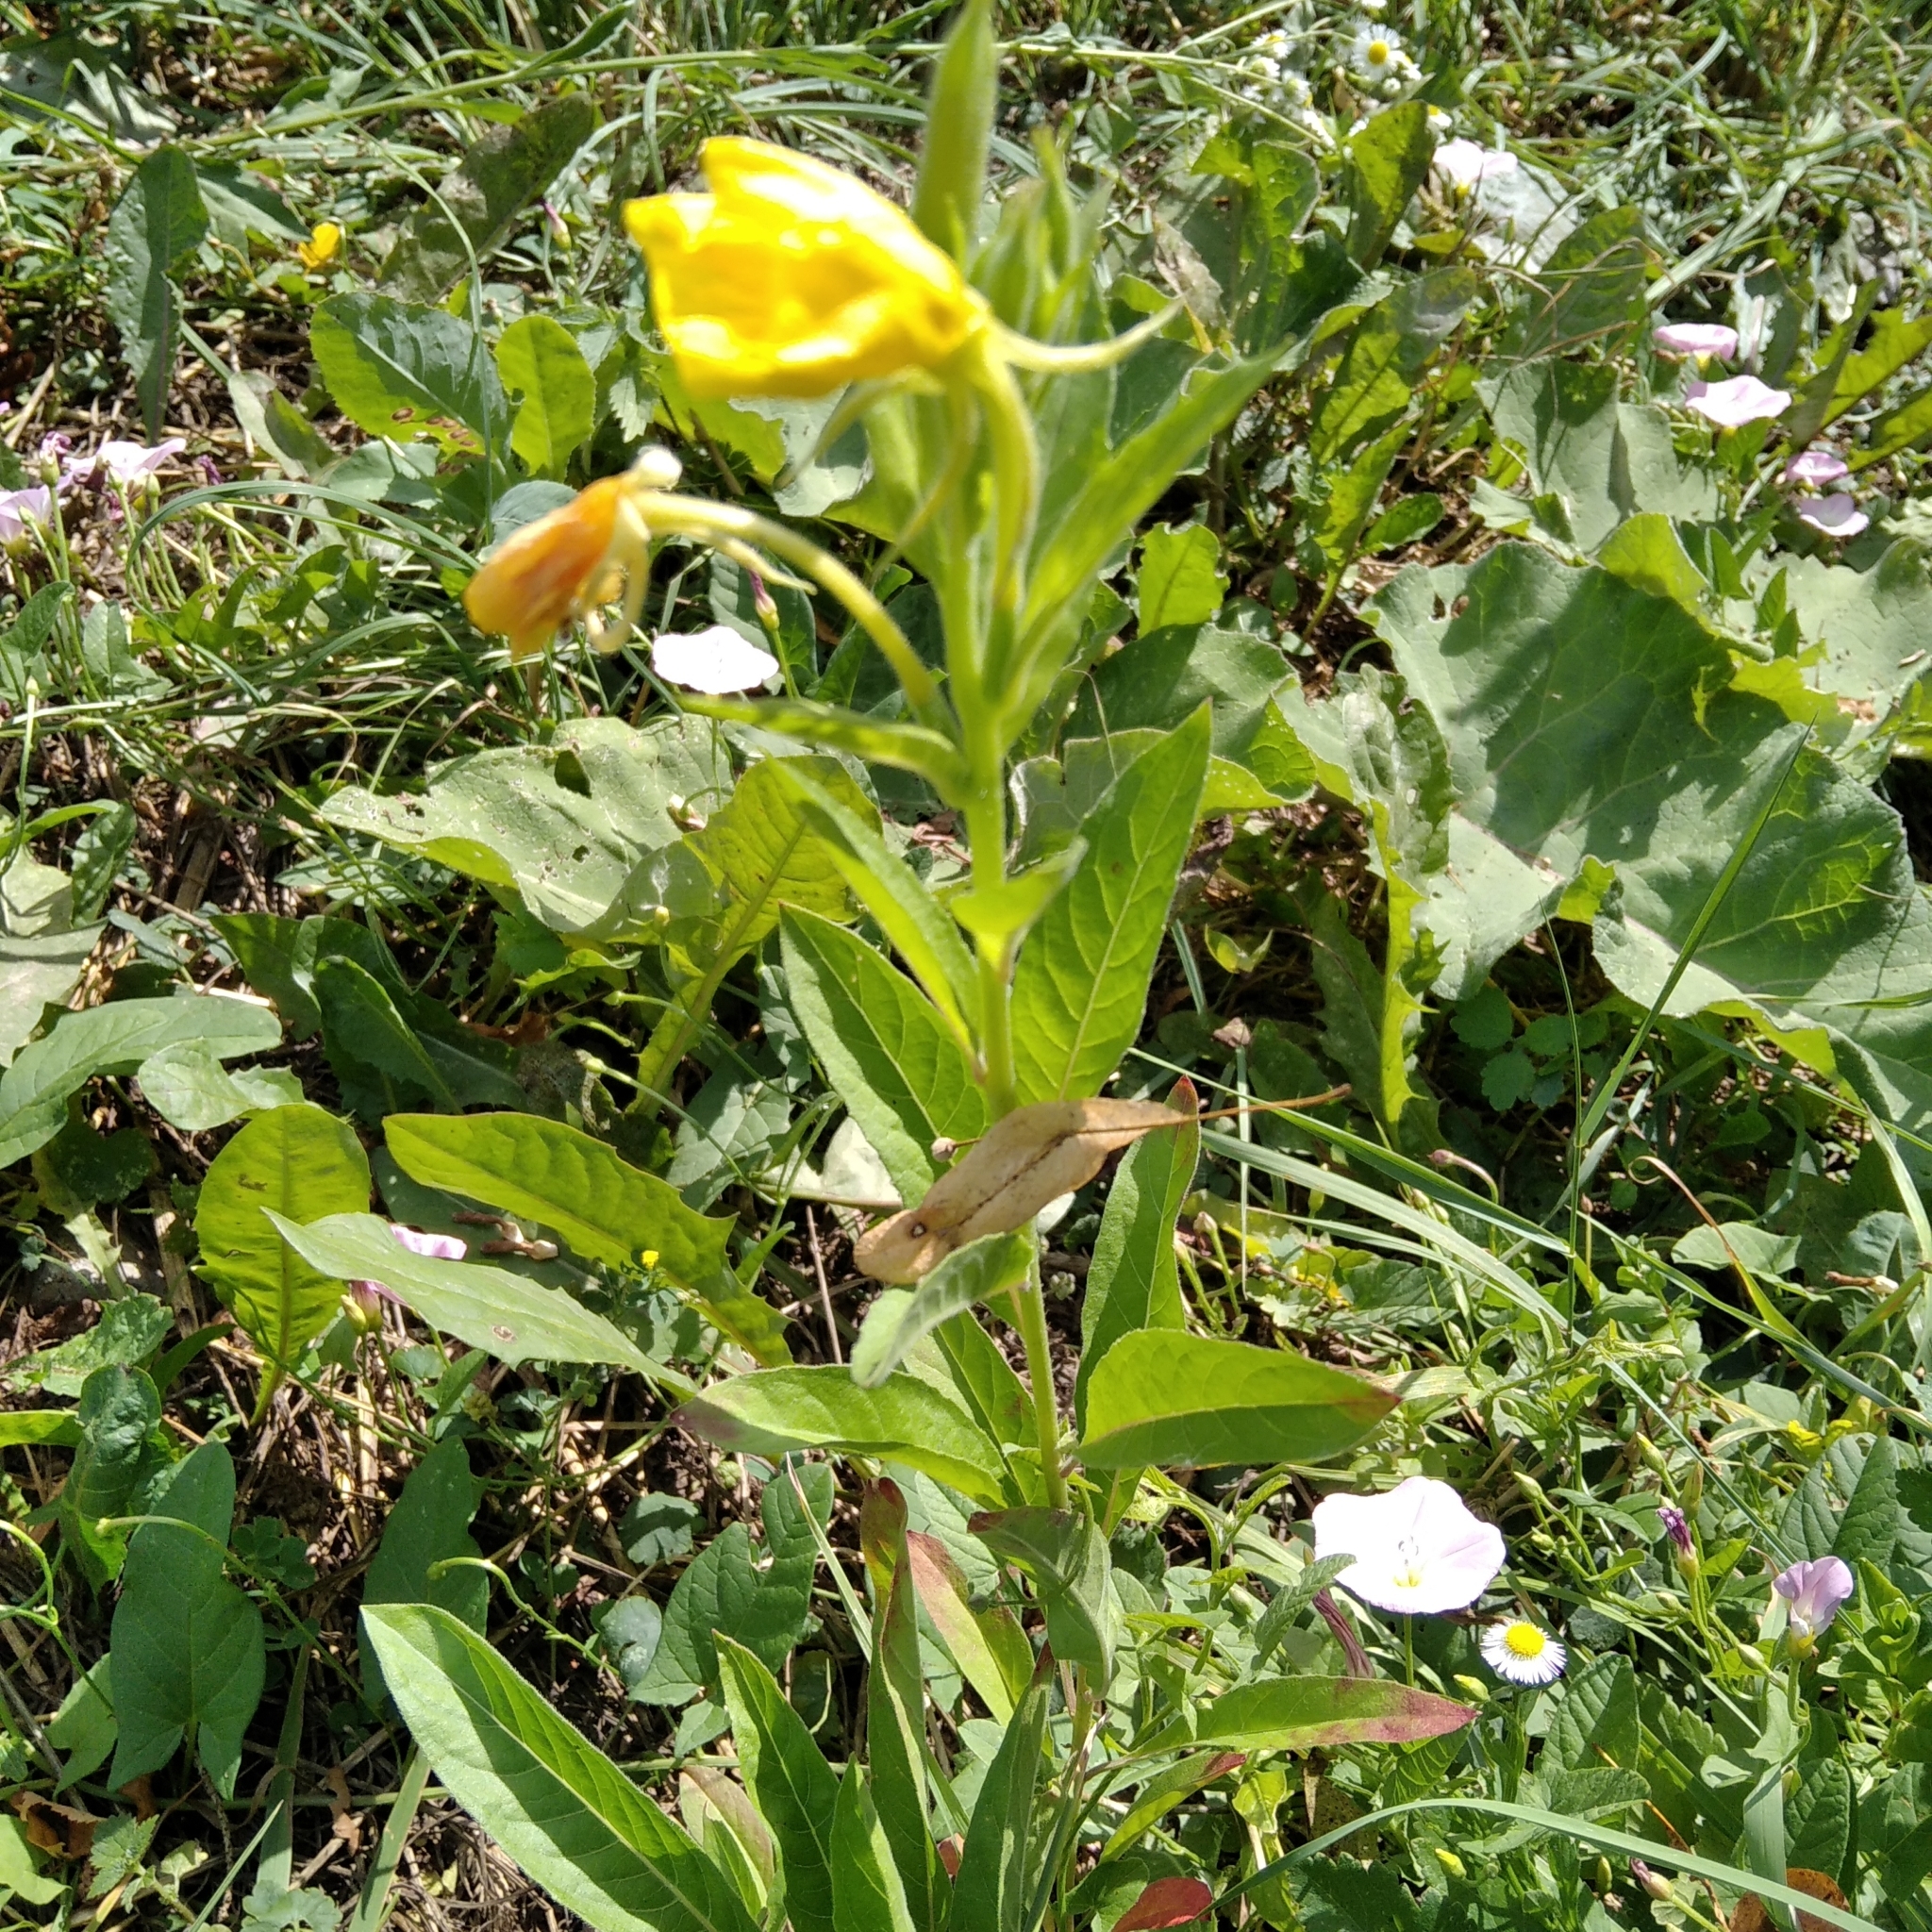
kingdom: Plantae
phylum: Tracheophyta
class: Magnoliopsida
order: Myrtales
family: Onagraceae
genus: Oenothera
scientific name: Oenothera biennis
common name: Common evening-primrose
